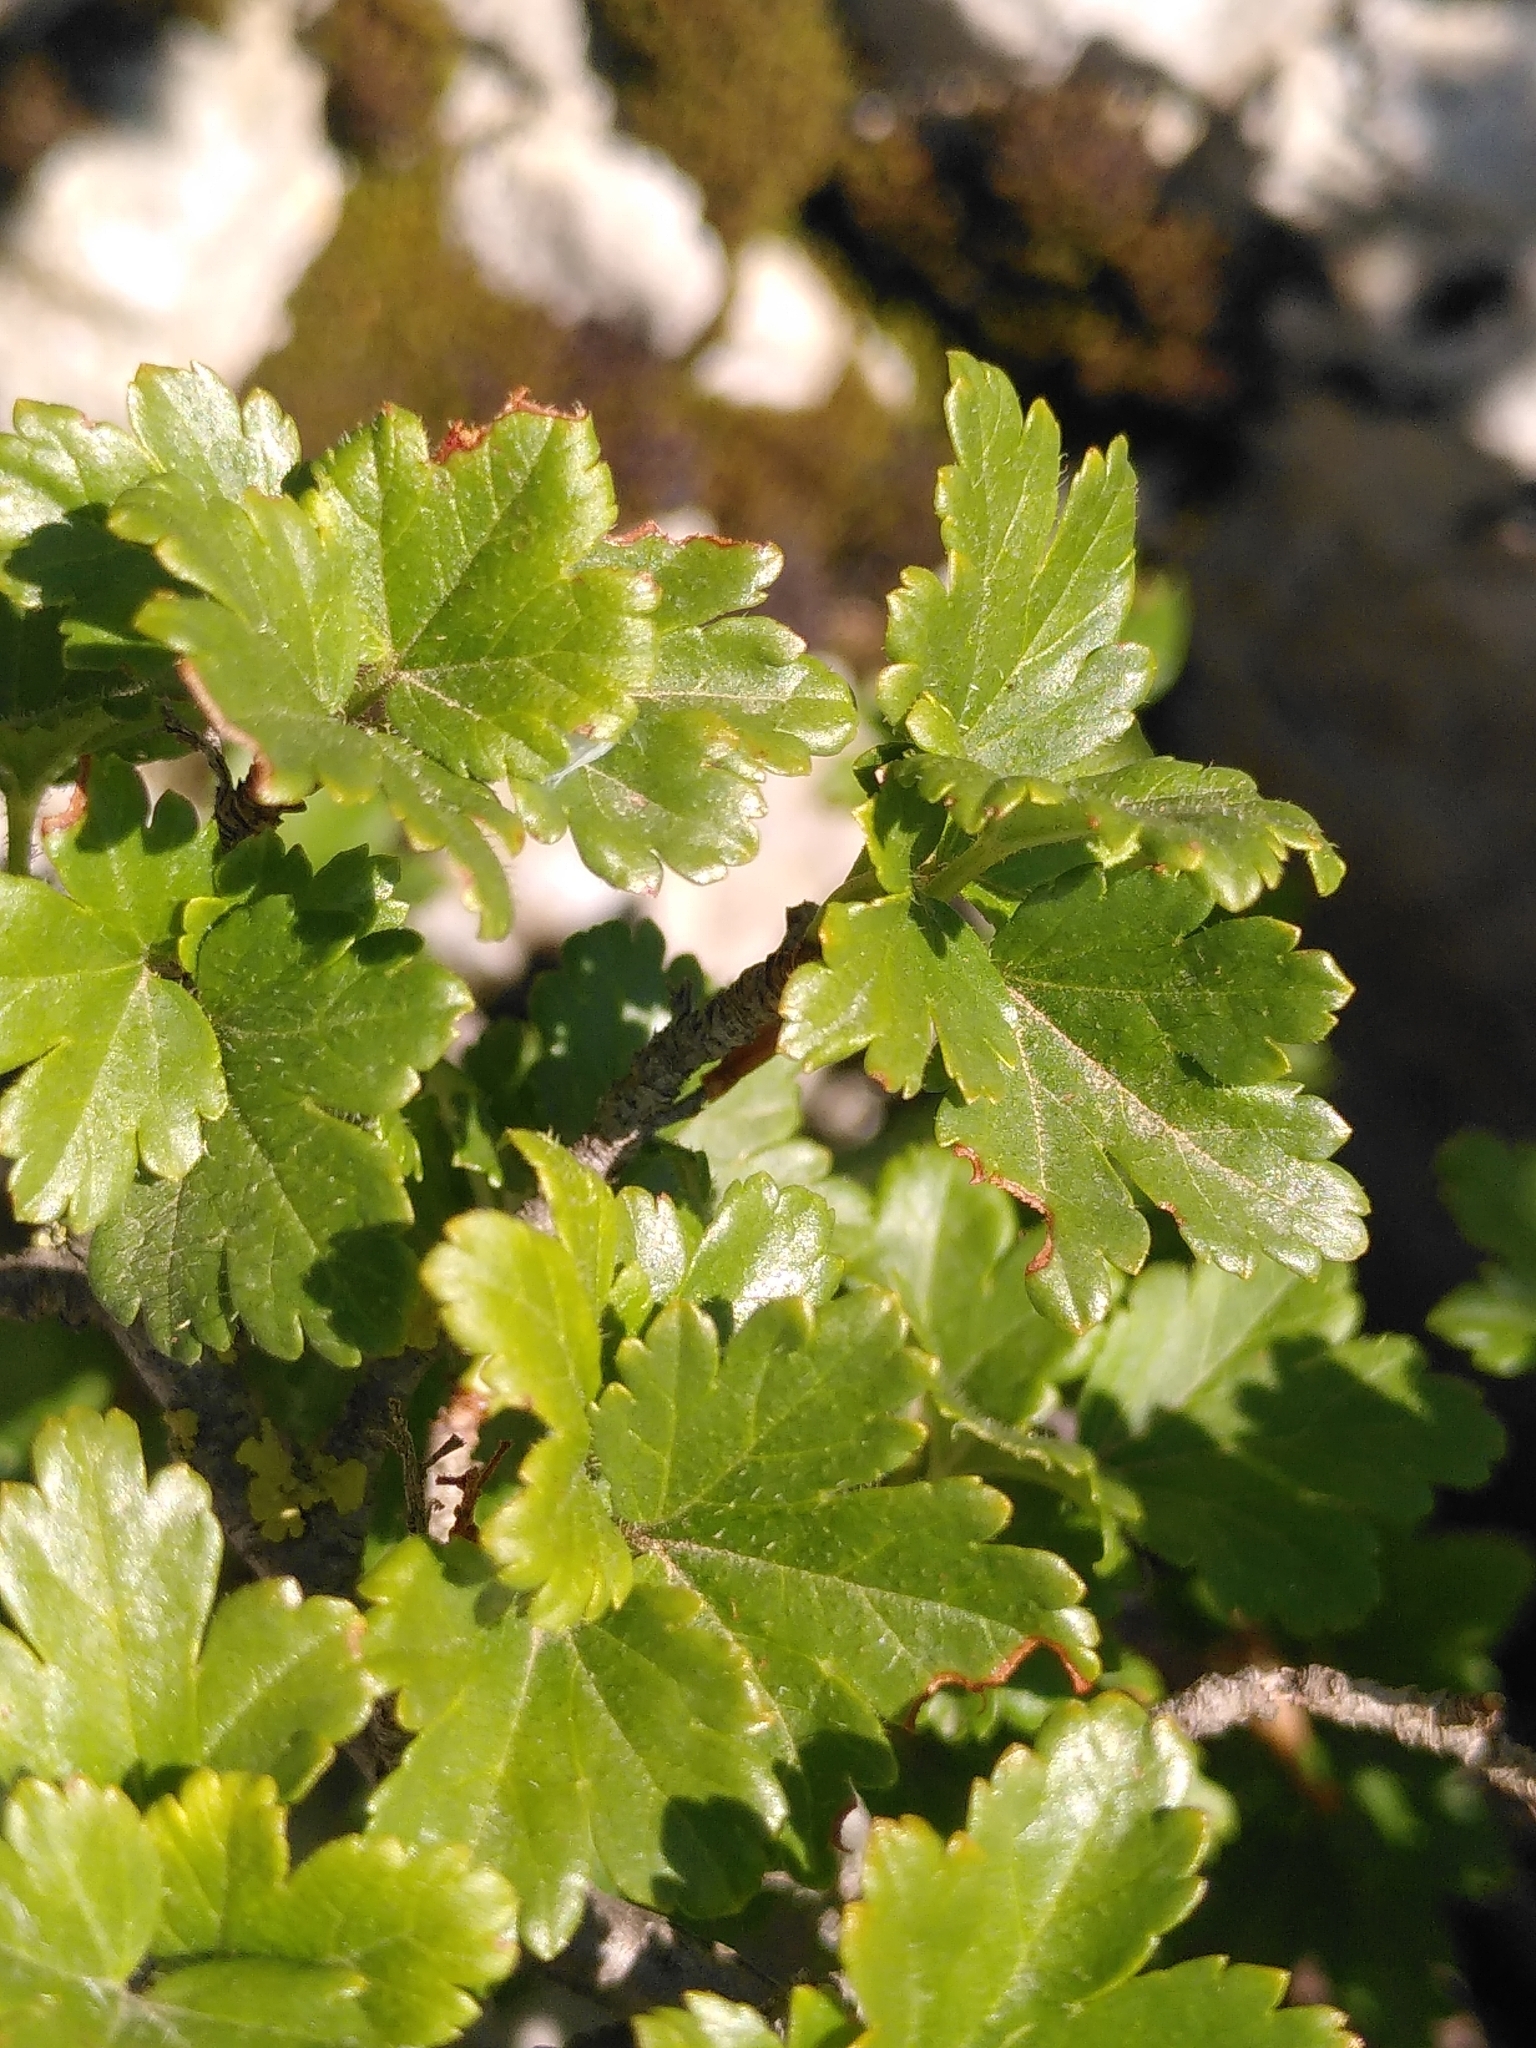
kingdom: Plantae
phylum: Tracheophyta
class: Magnoliopsida
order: Saxifragales
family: Grossulariaceae
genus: Ribes
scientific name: Ribes alpinum
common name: Alpine currant
